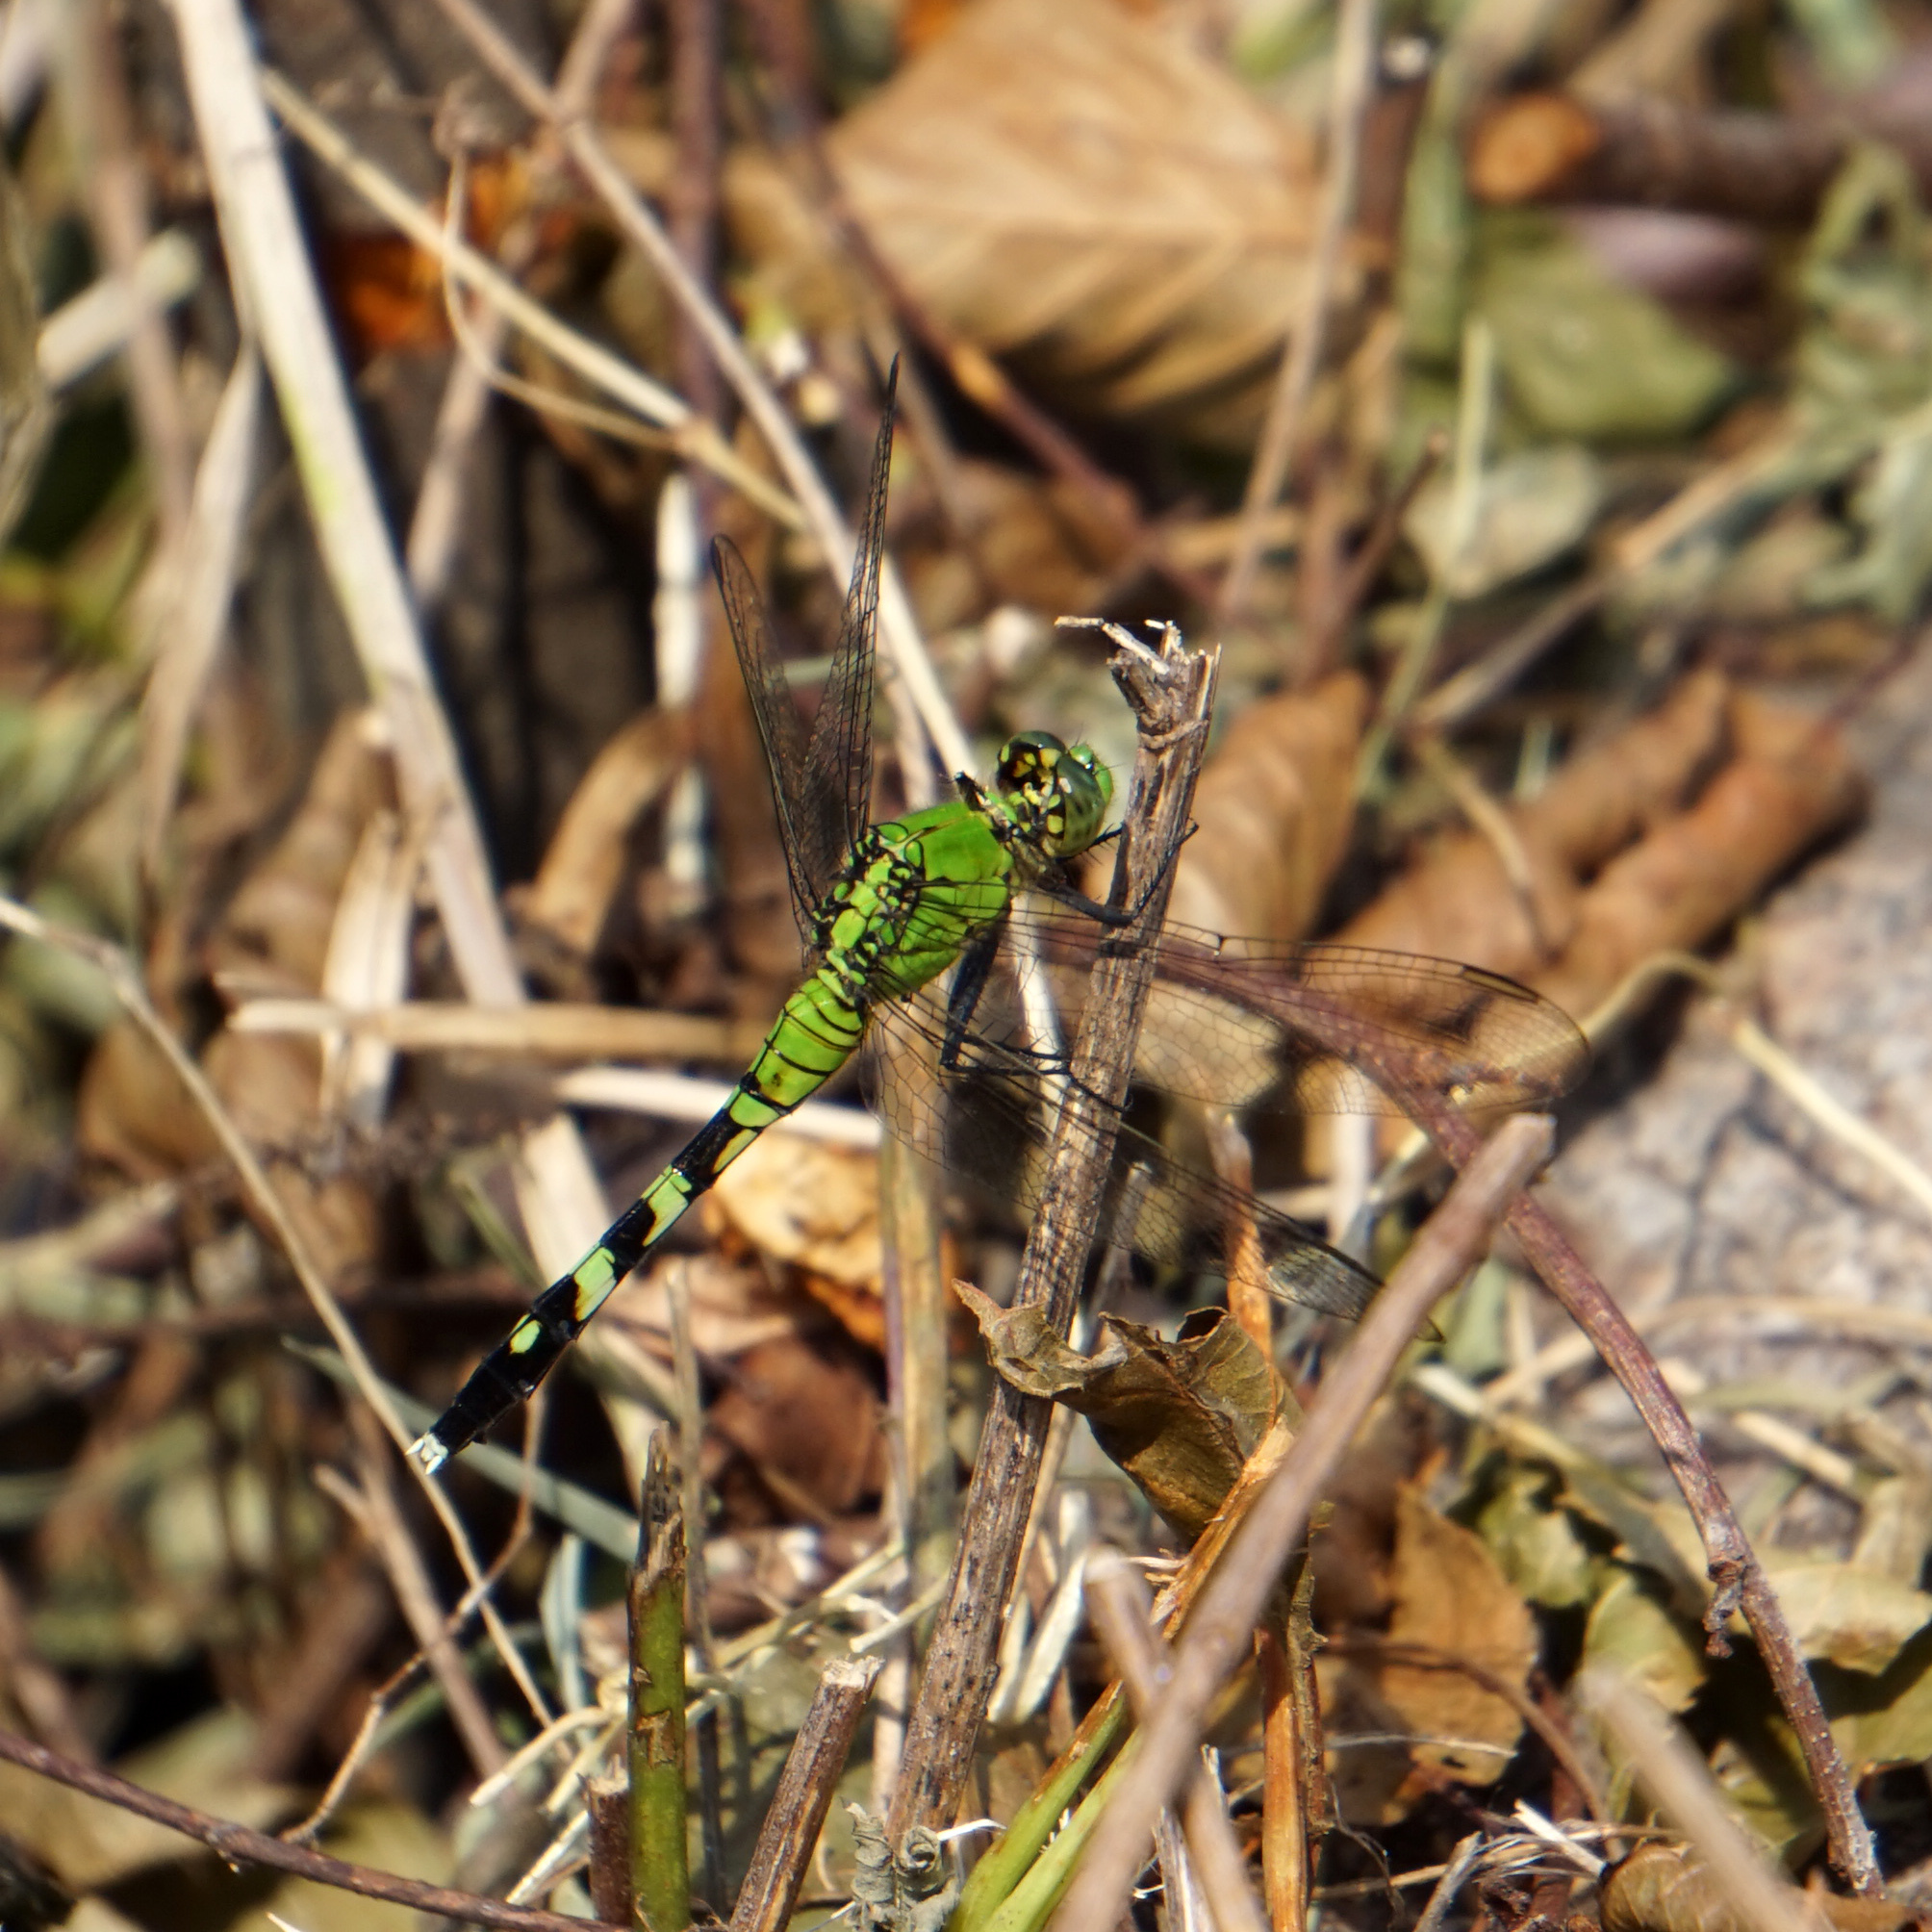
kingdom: Animalia
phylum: Arthropoda
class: Insecta
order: Odonata
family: Libellulidae
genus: Erythemis
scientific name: Erythemis simplicicollis
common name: Eastern pondhawk
